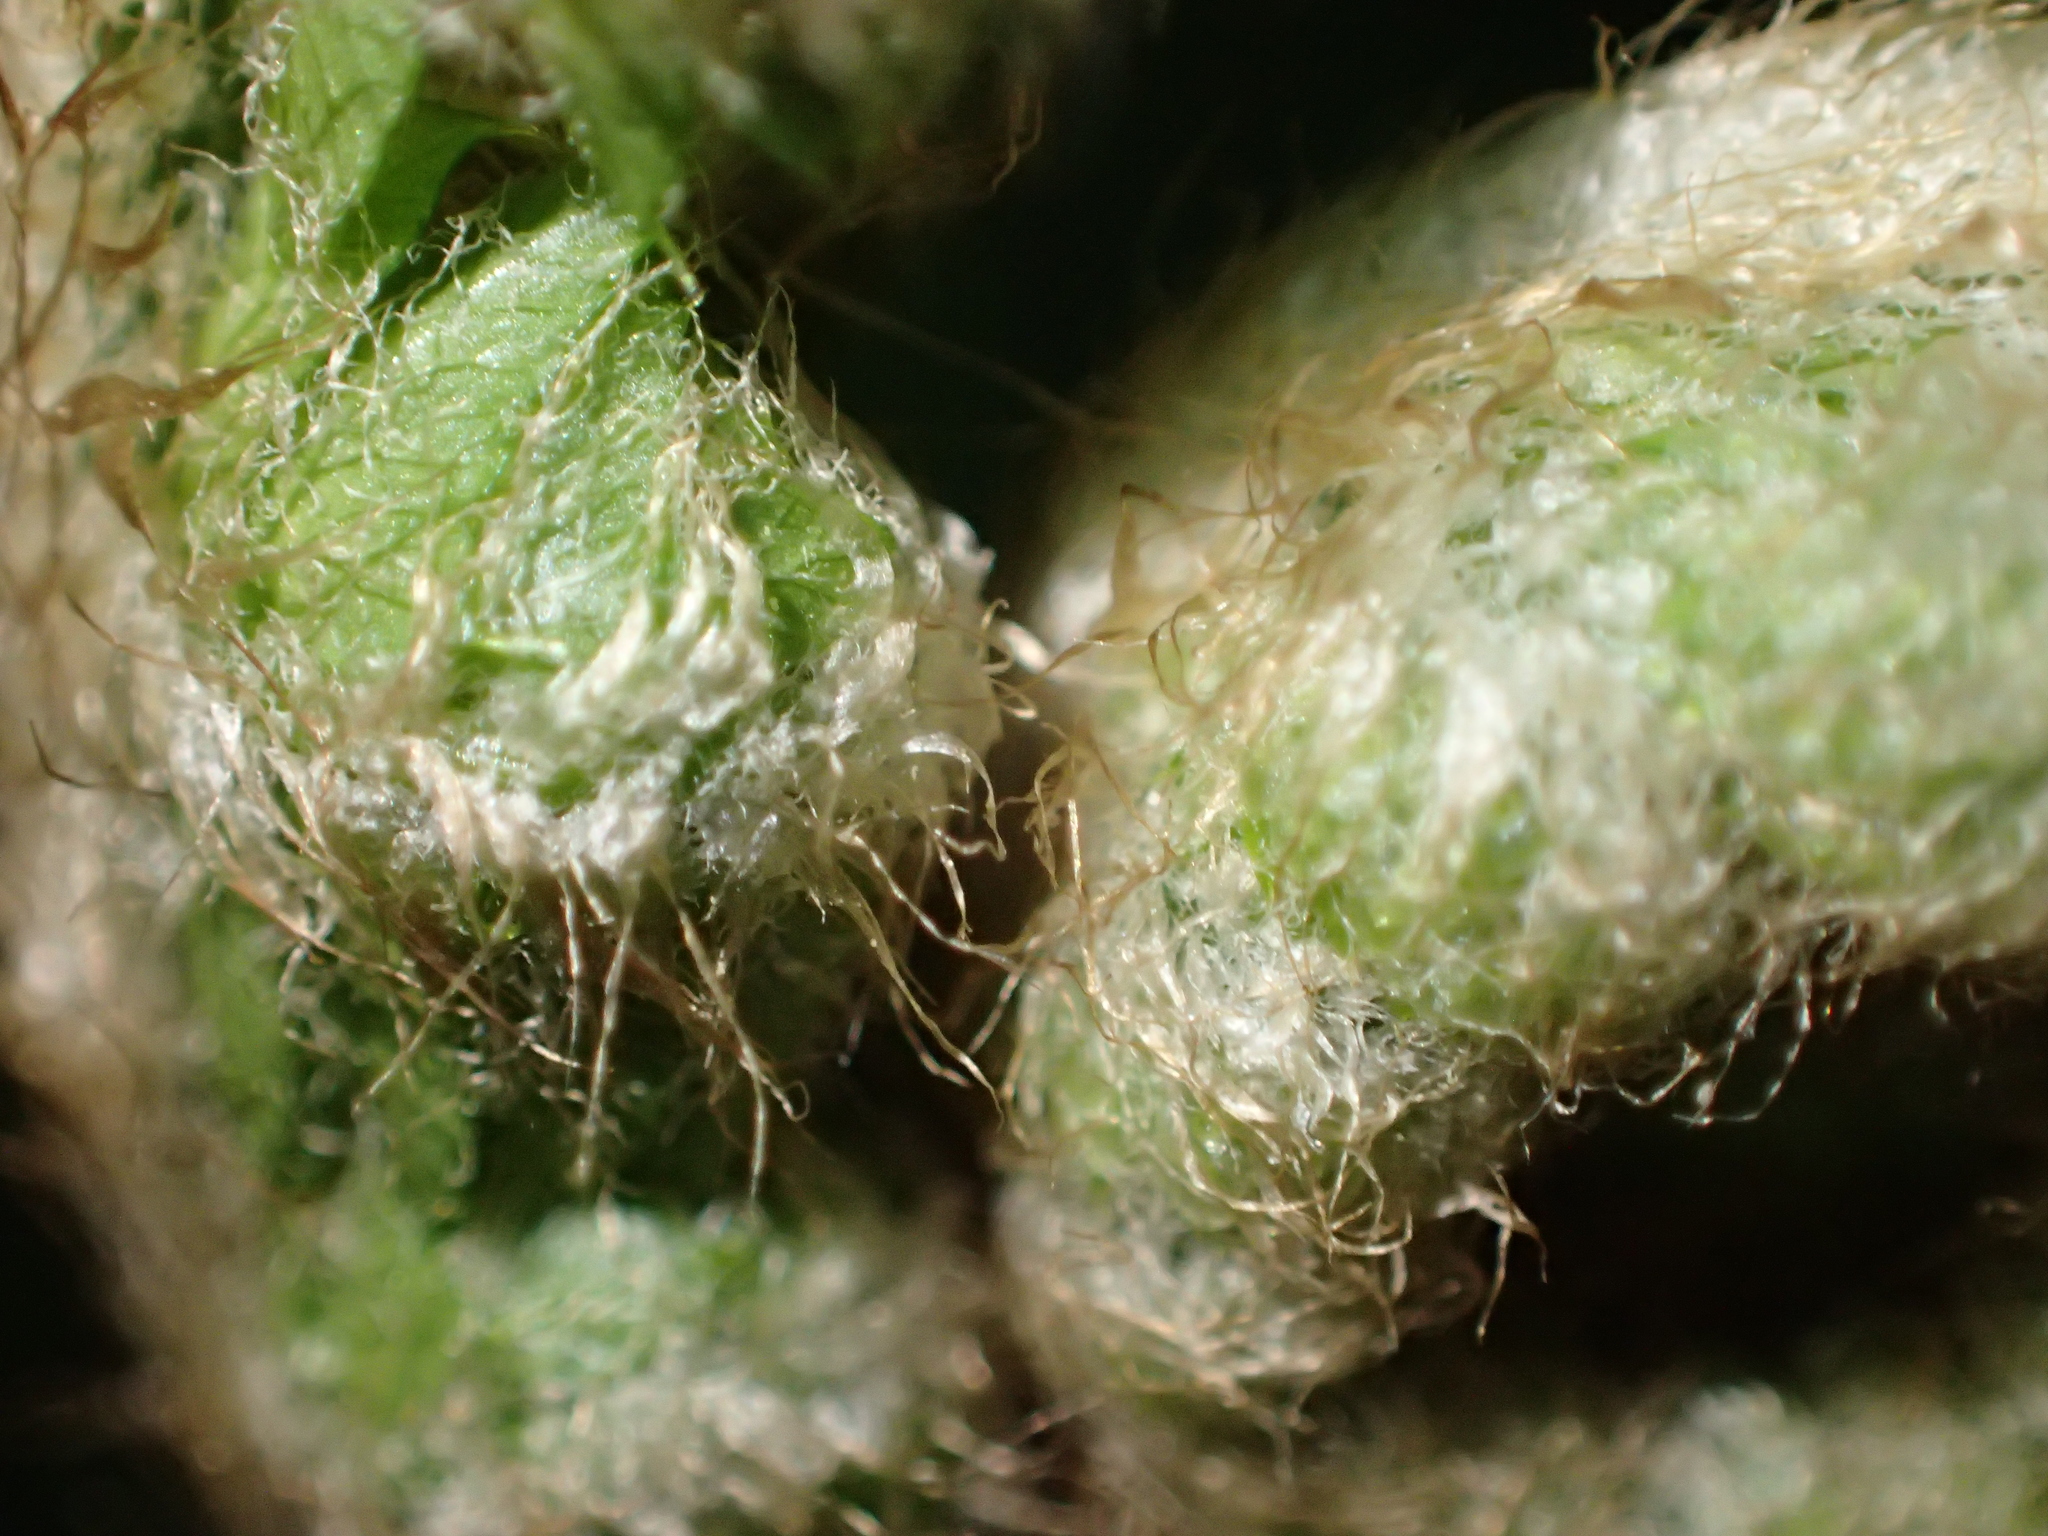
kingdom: Plantae
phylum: Tracheophyta
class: Polypodiopsida
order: Polypodiales
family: Dryopteridaceae
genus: Polystichum
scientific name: Polystichum setiferum
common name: Soft shield-fern
